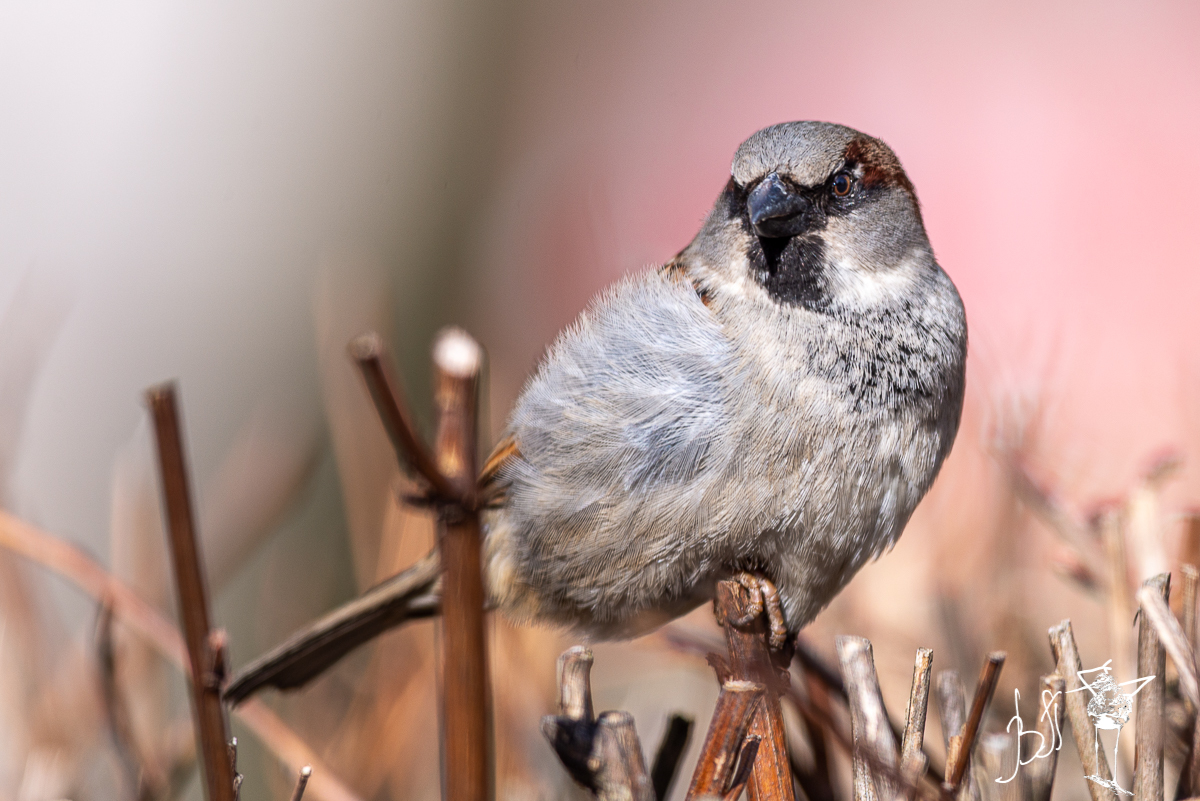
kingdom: Animalia
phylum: Chordata
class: Aves
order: Passeriformes
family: Passeridae
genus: Passer
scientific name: Passer domesticus
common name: House sparrow
